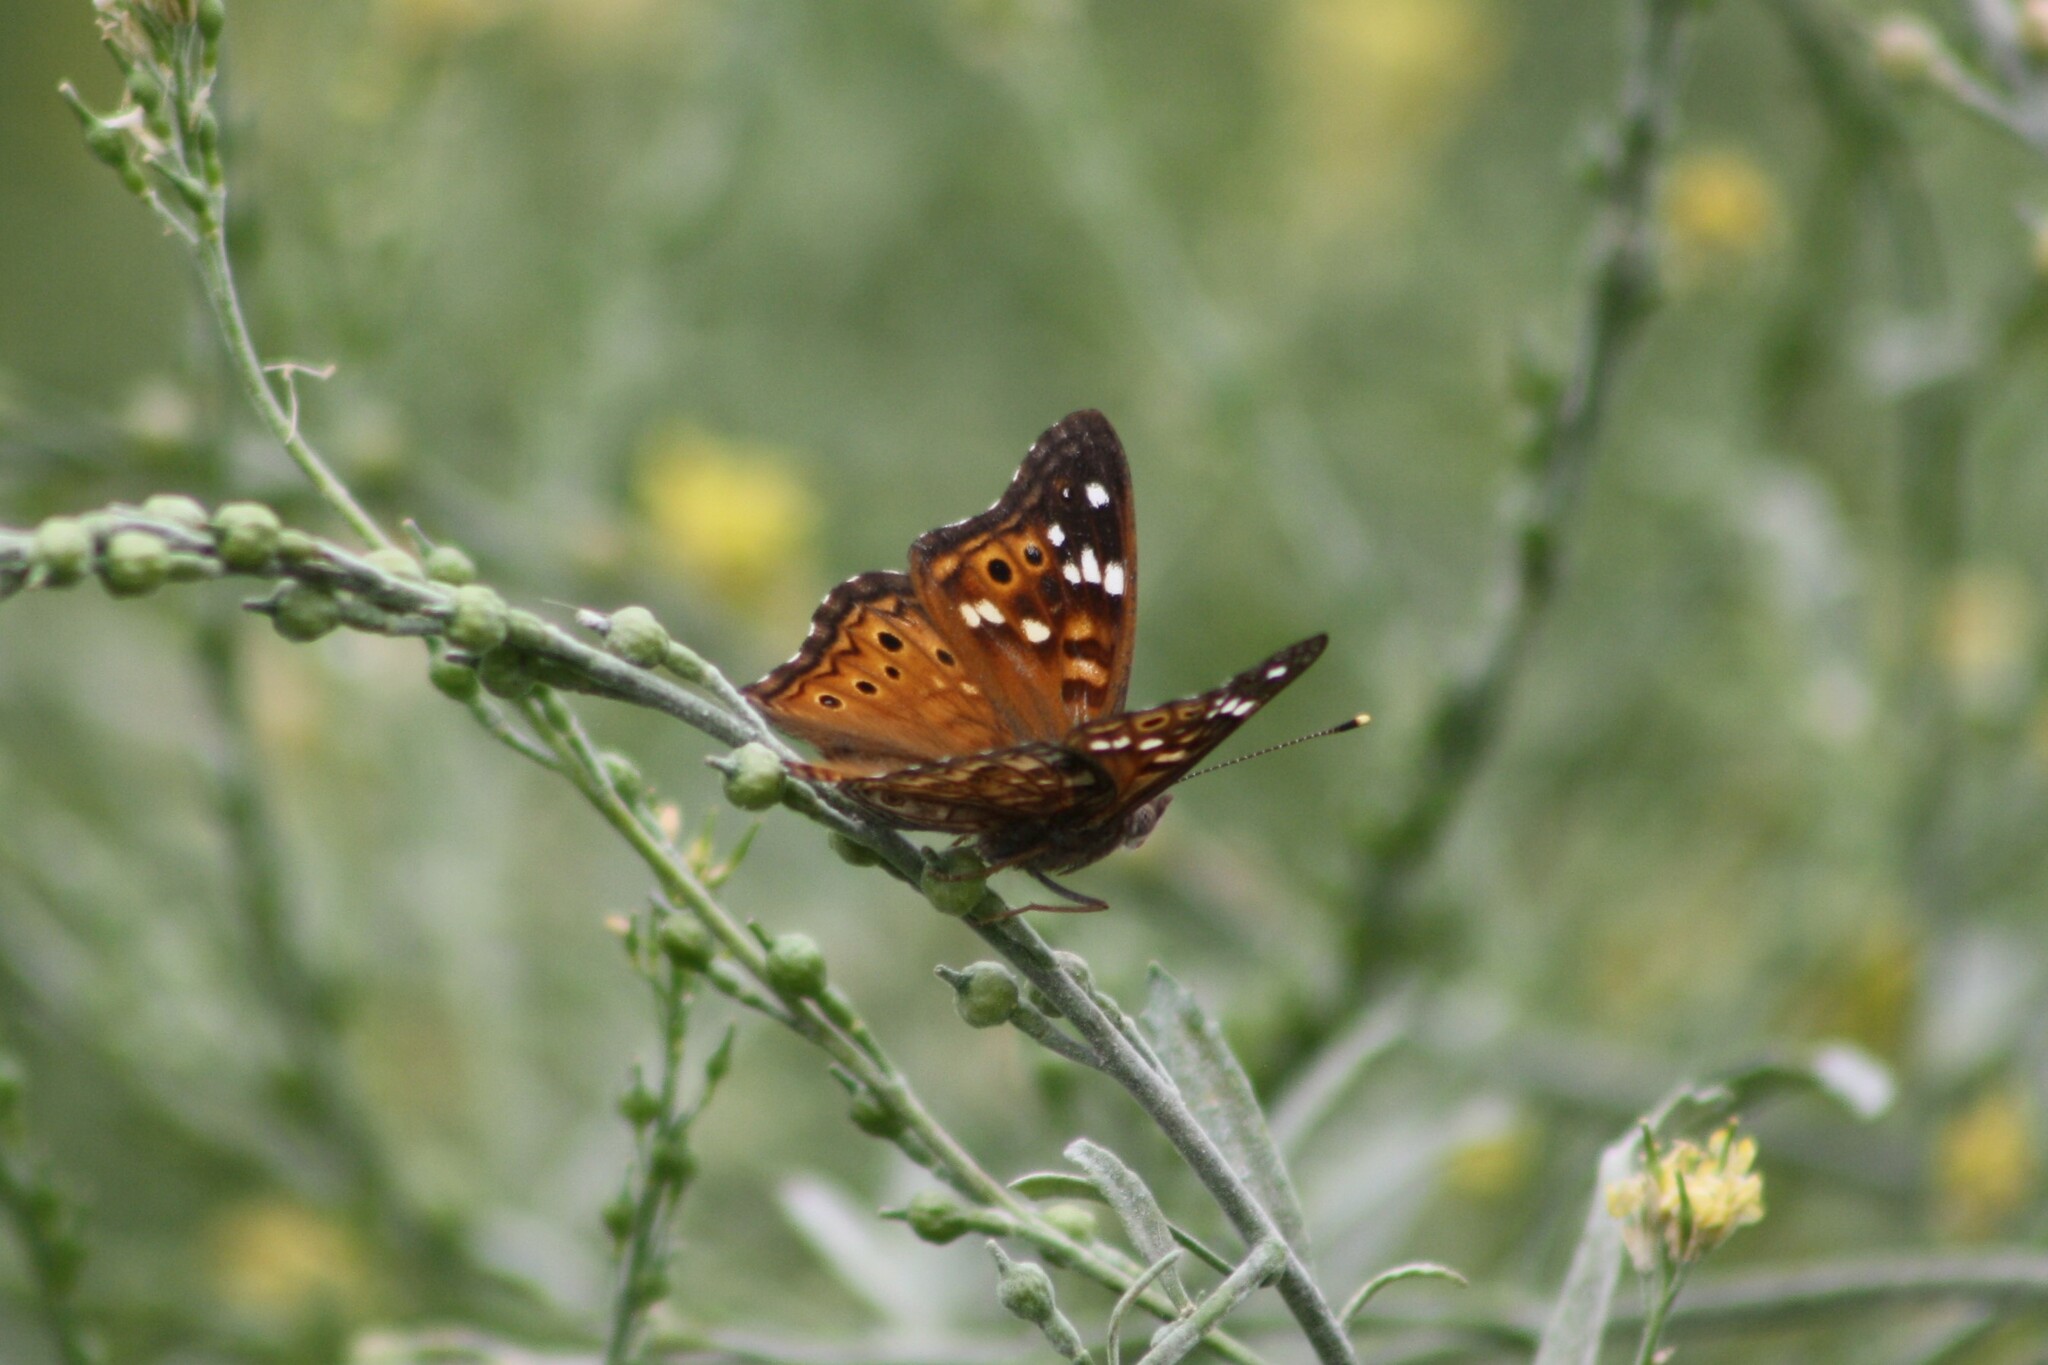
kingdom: Animalia
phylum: Arthropoda
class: Insecta
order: Lepidoptera
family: Nymphalidae
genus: Asterocampa
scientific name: Asterocampa leilia
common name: Empress leilia
